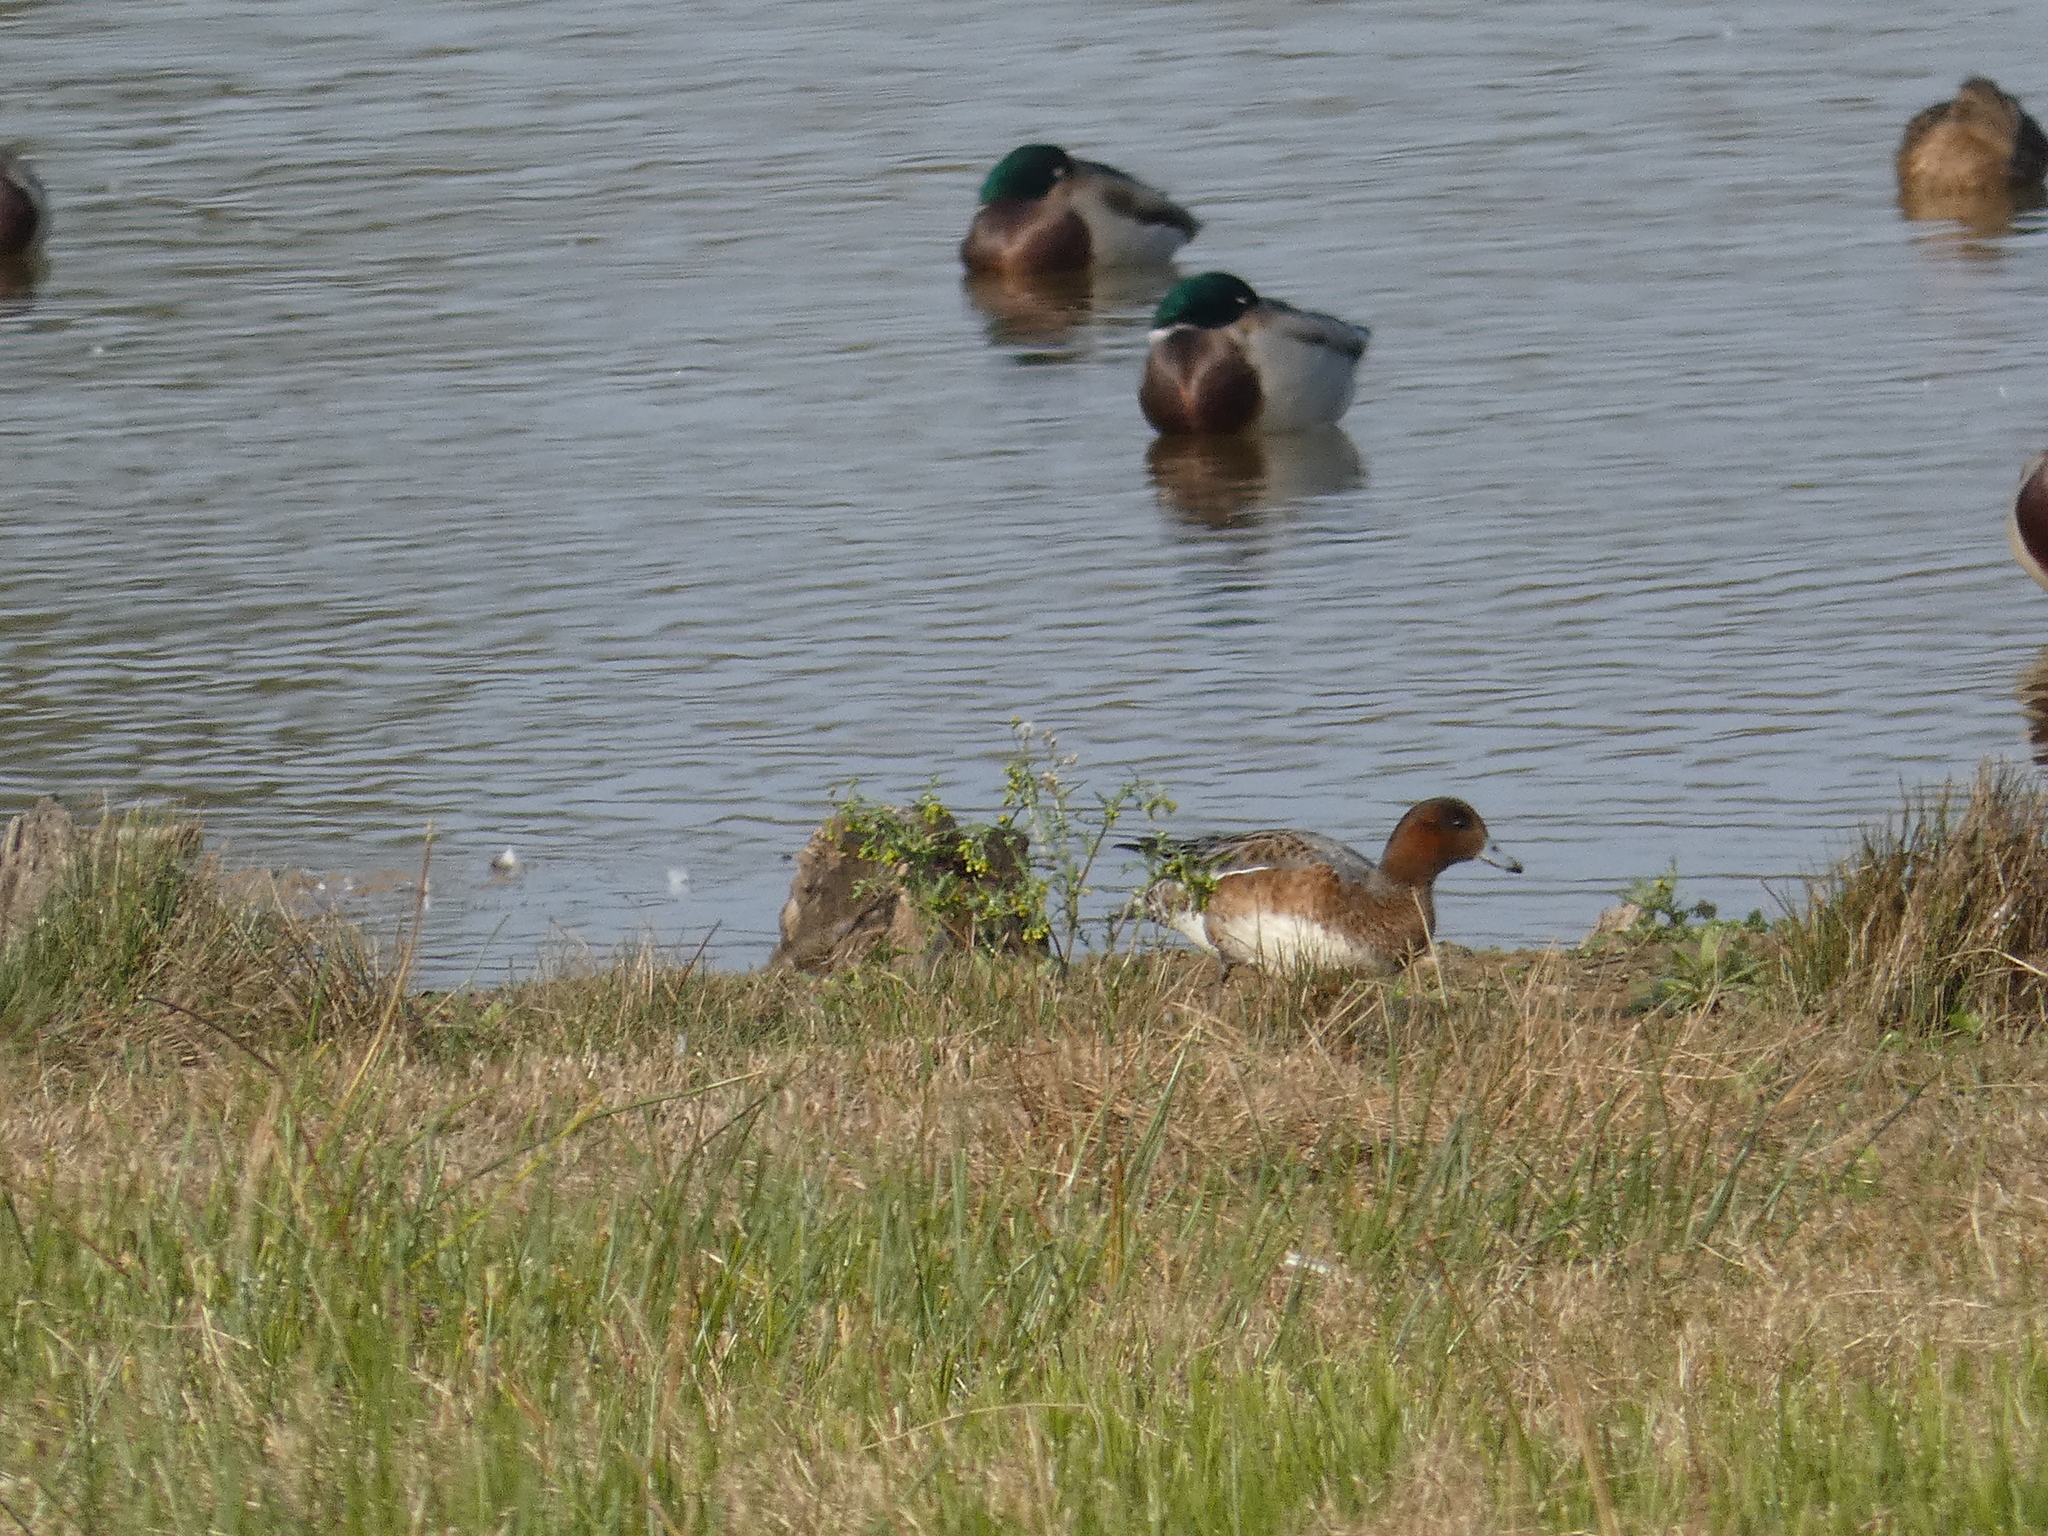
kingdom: Animalia
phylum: Chordata
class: Aves
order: Anseriformes
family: Anatidae
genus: Mareca
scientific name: Mareca penelope
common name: Eurasian wigeon
